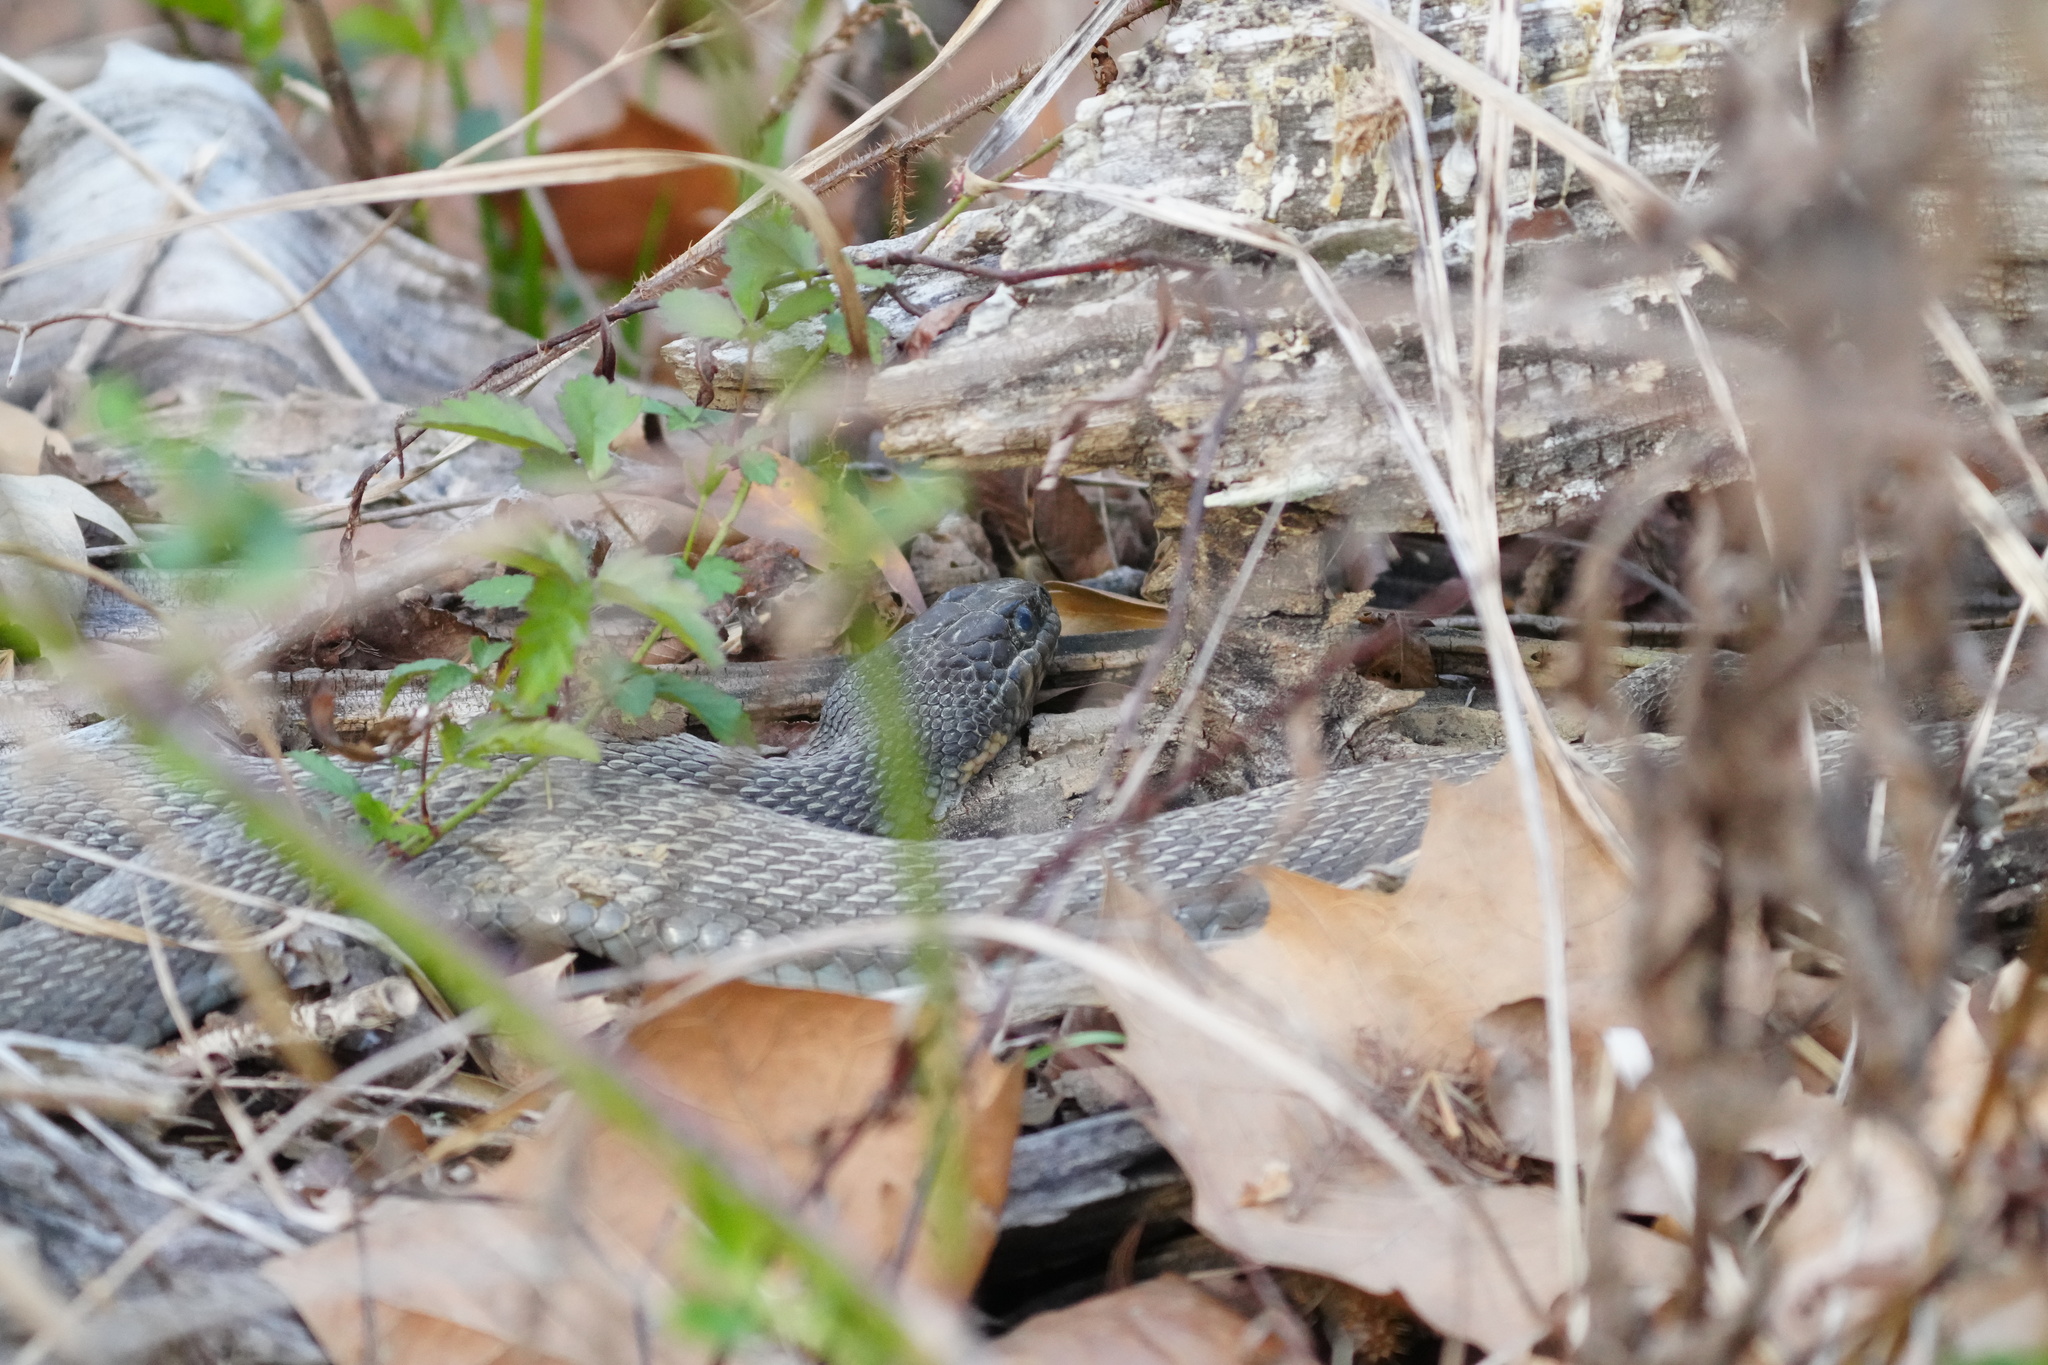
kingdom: Animalia
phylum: Chordata
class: Squamata
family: Colubridae
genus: Nerodia
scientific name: Nerodia erythrogaster
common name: Plainbelly water snake
